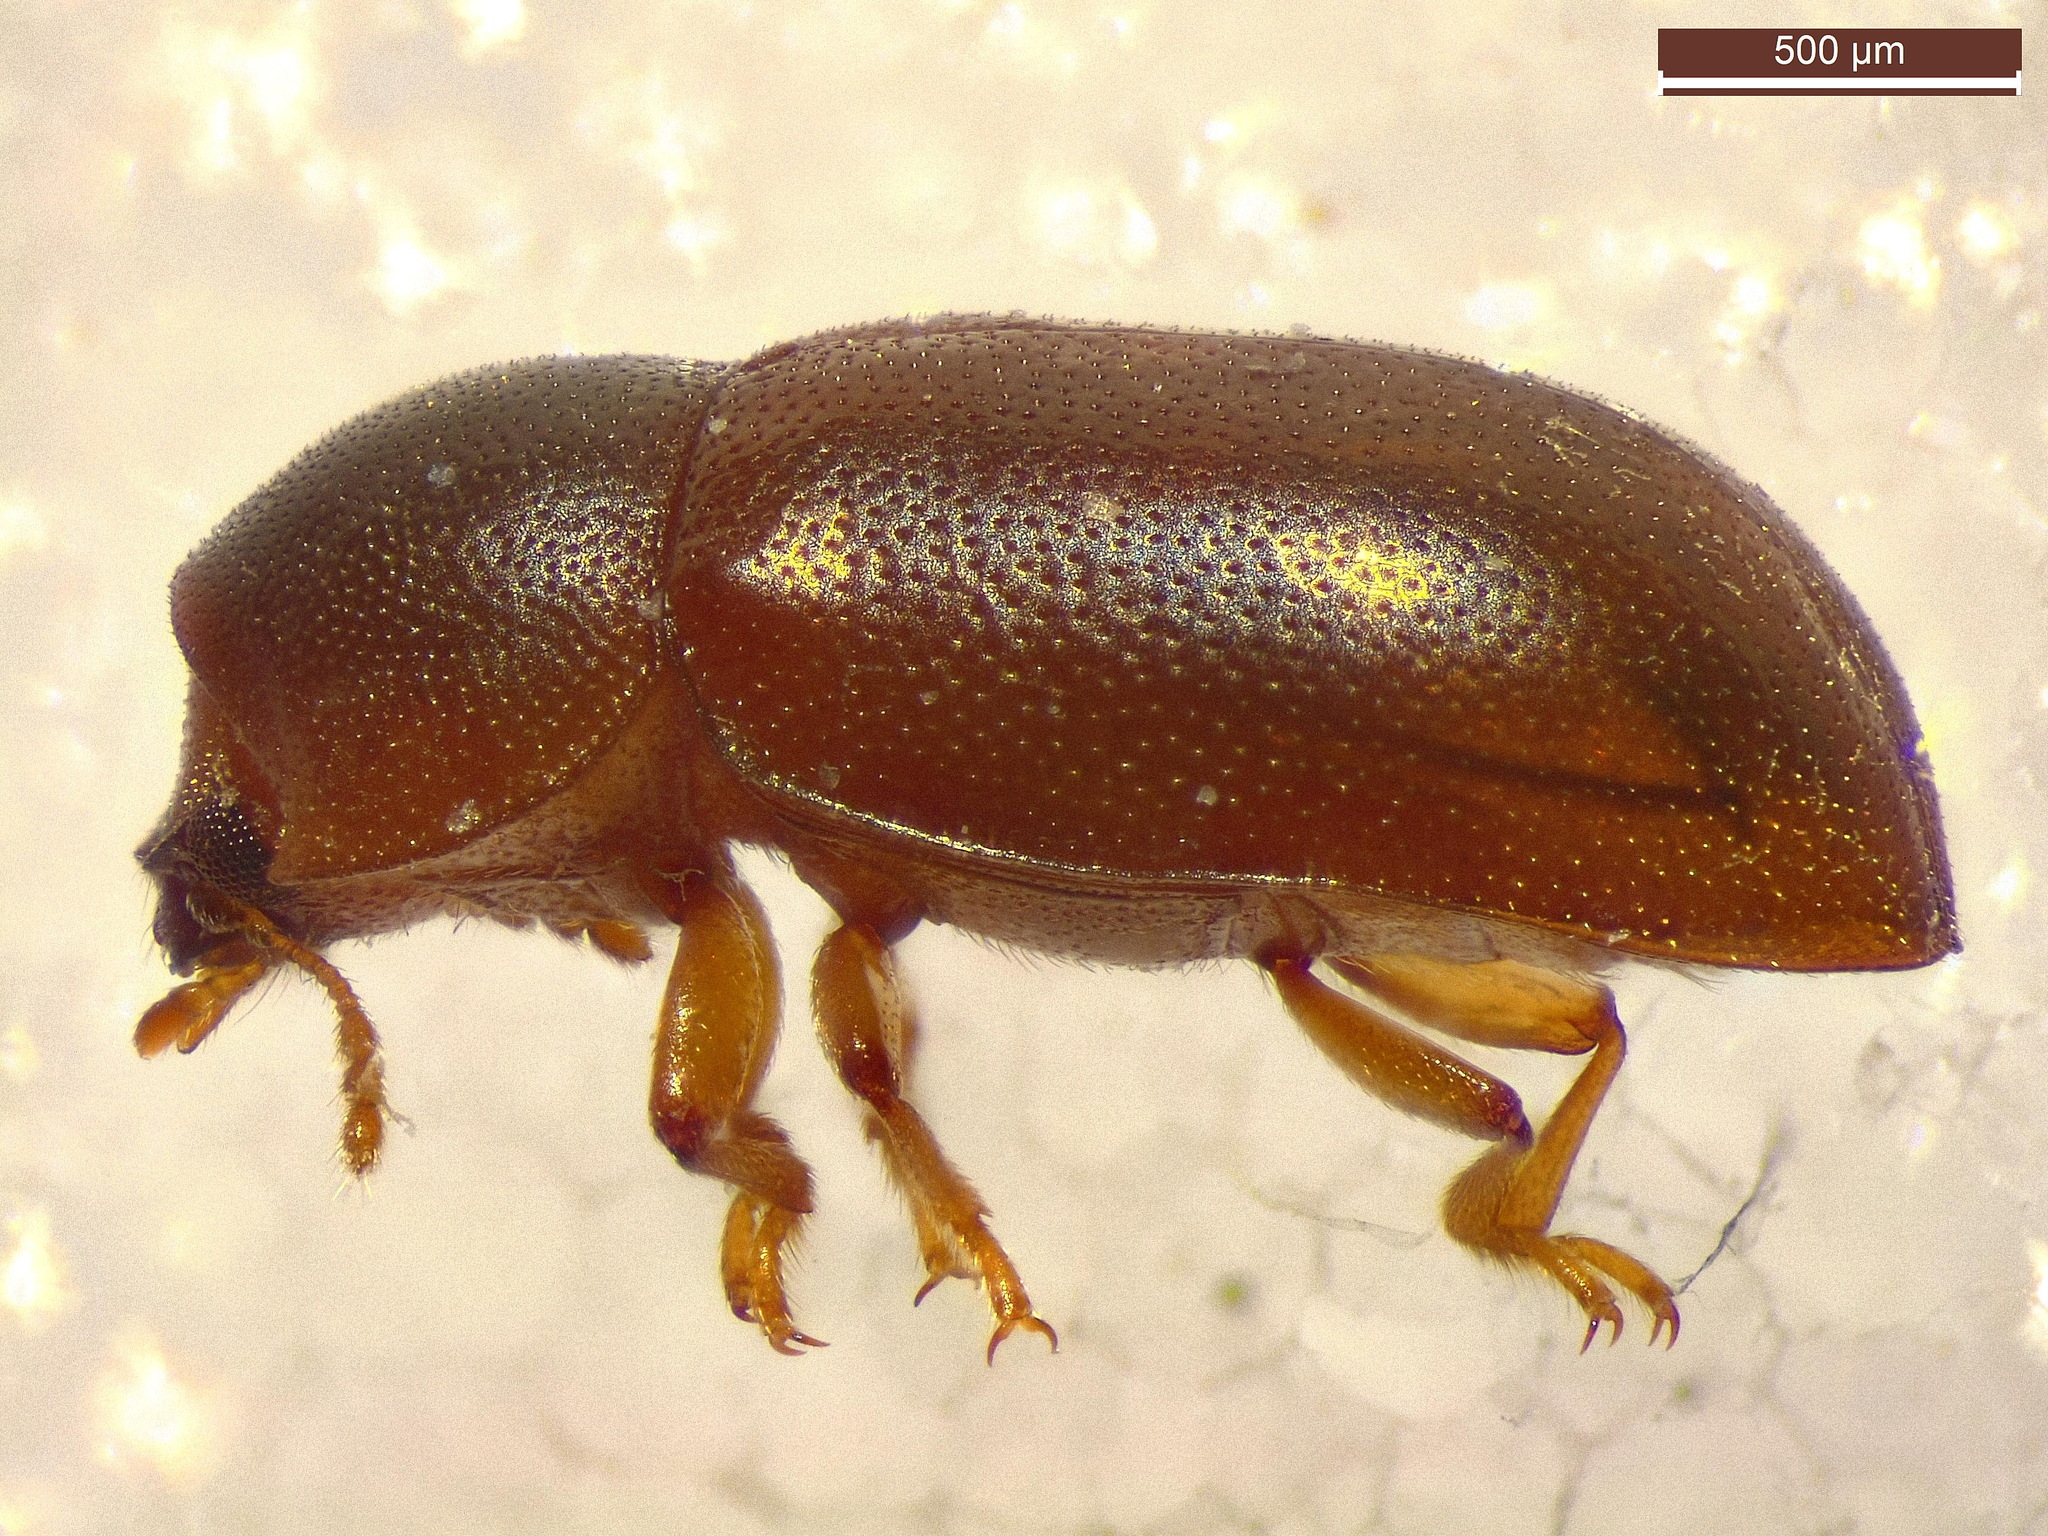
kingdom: Animalia
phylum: Arthropoda
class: Insecta
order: Coleoptera
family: Ciidae
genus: Cis
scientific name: Cis bidentatus
